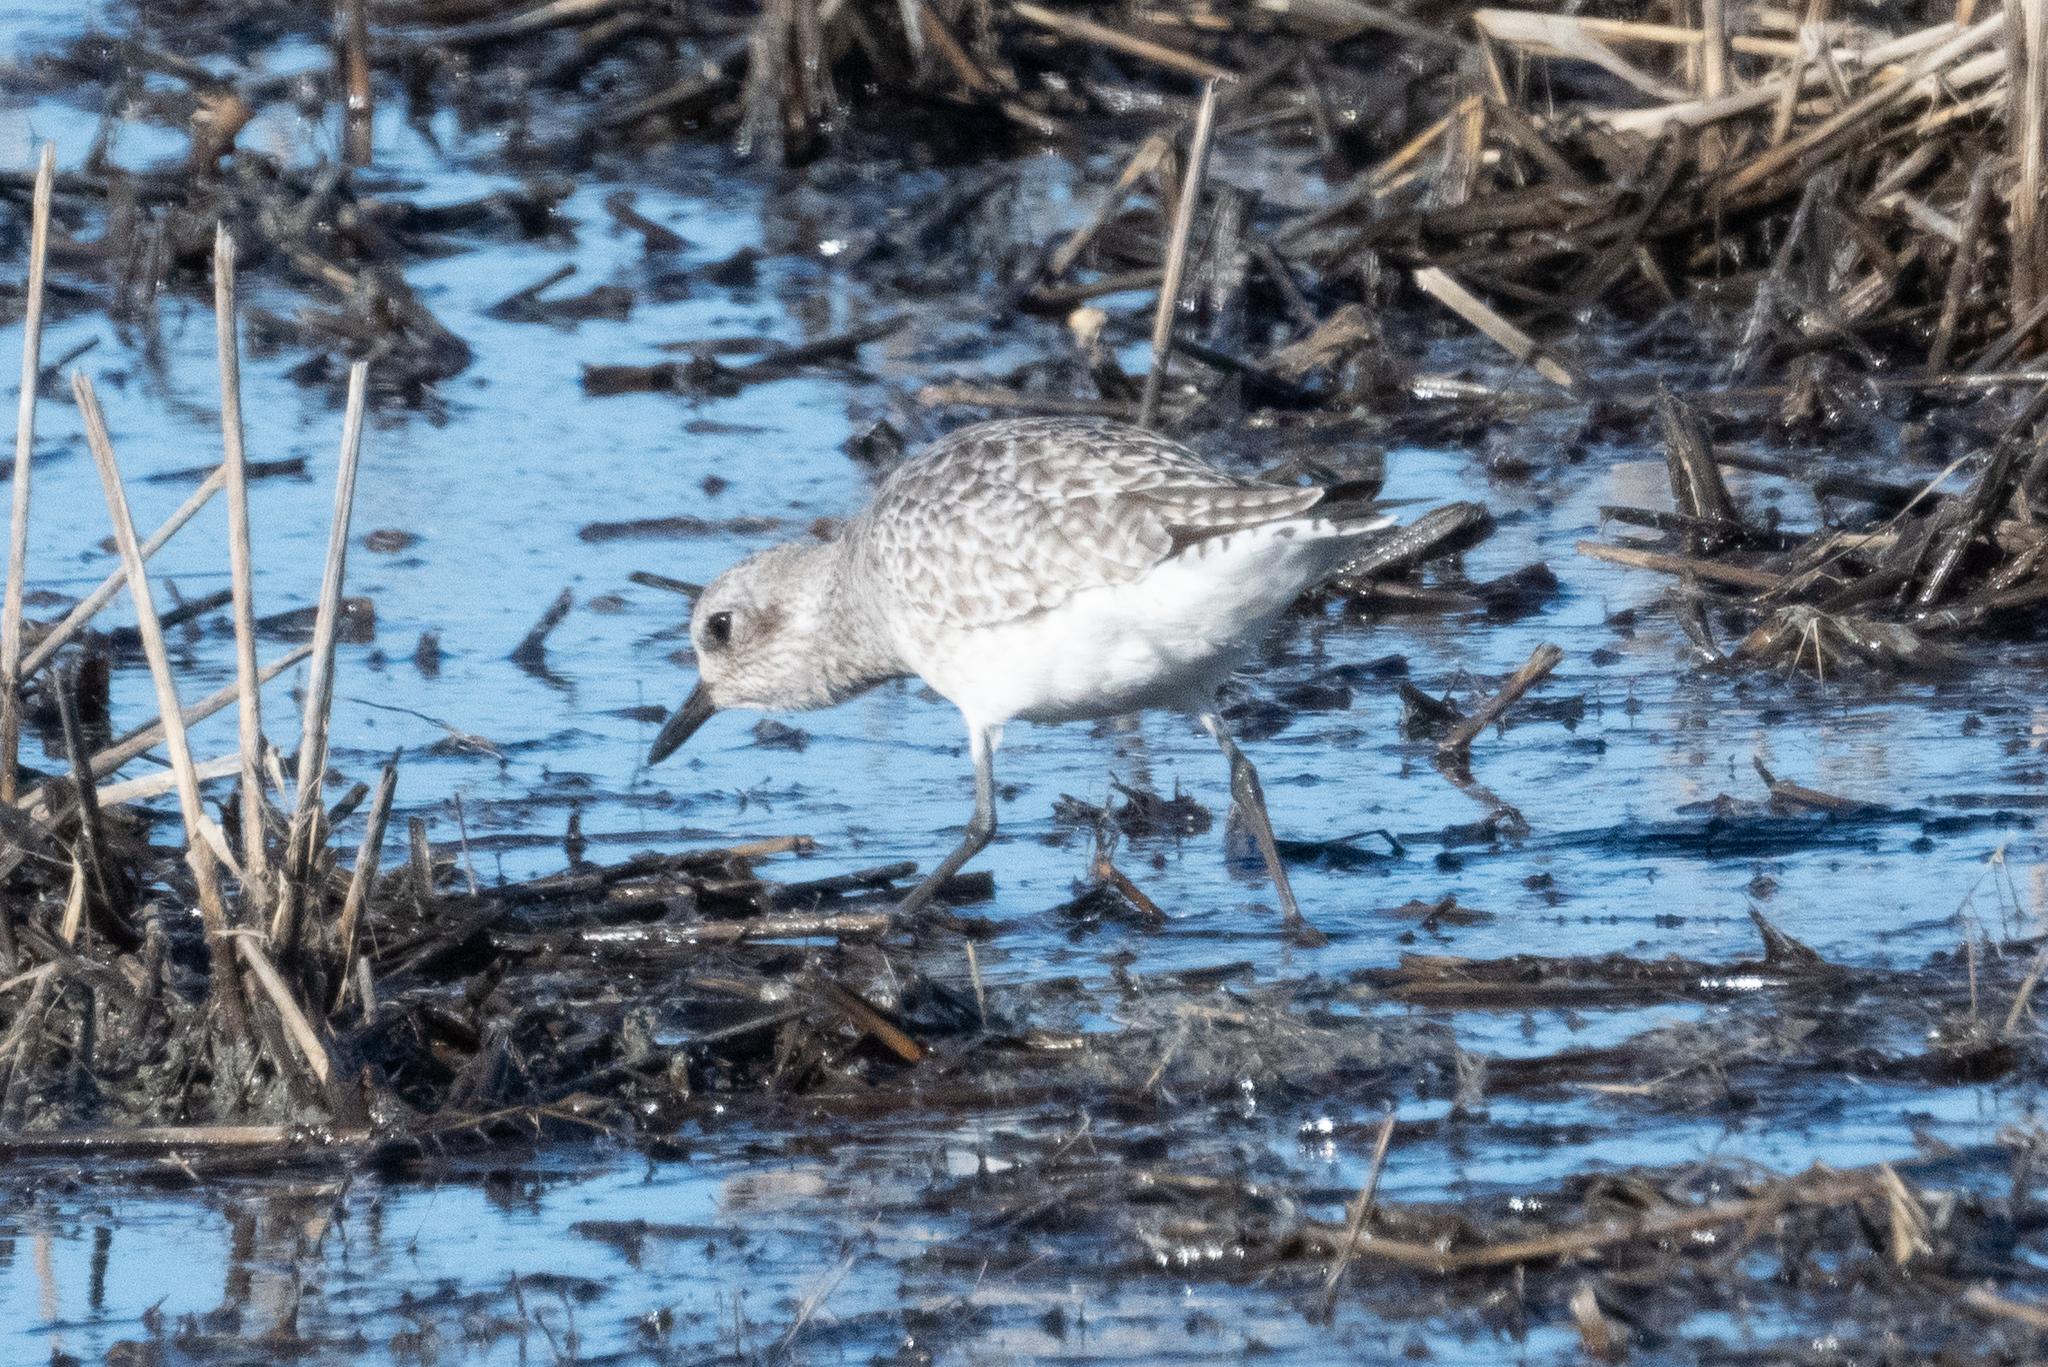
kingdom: Animalia
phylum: Chordata
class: Aves
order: Charadriiformes
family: Charadriidae
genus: Pluvialis
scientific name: Pluvialis squatarola
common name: Grey plover
